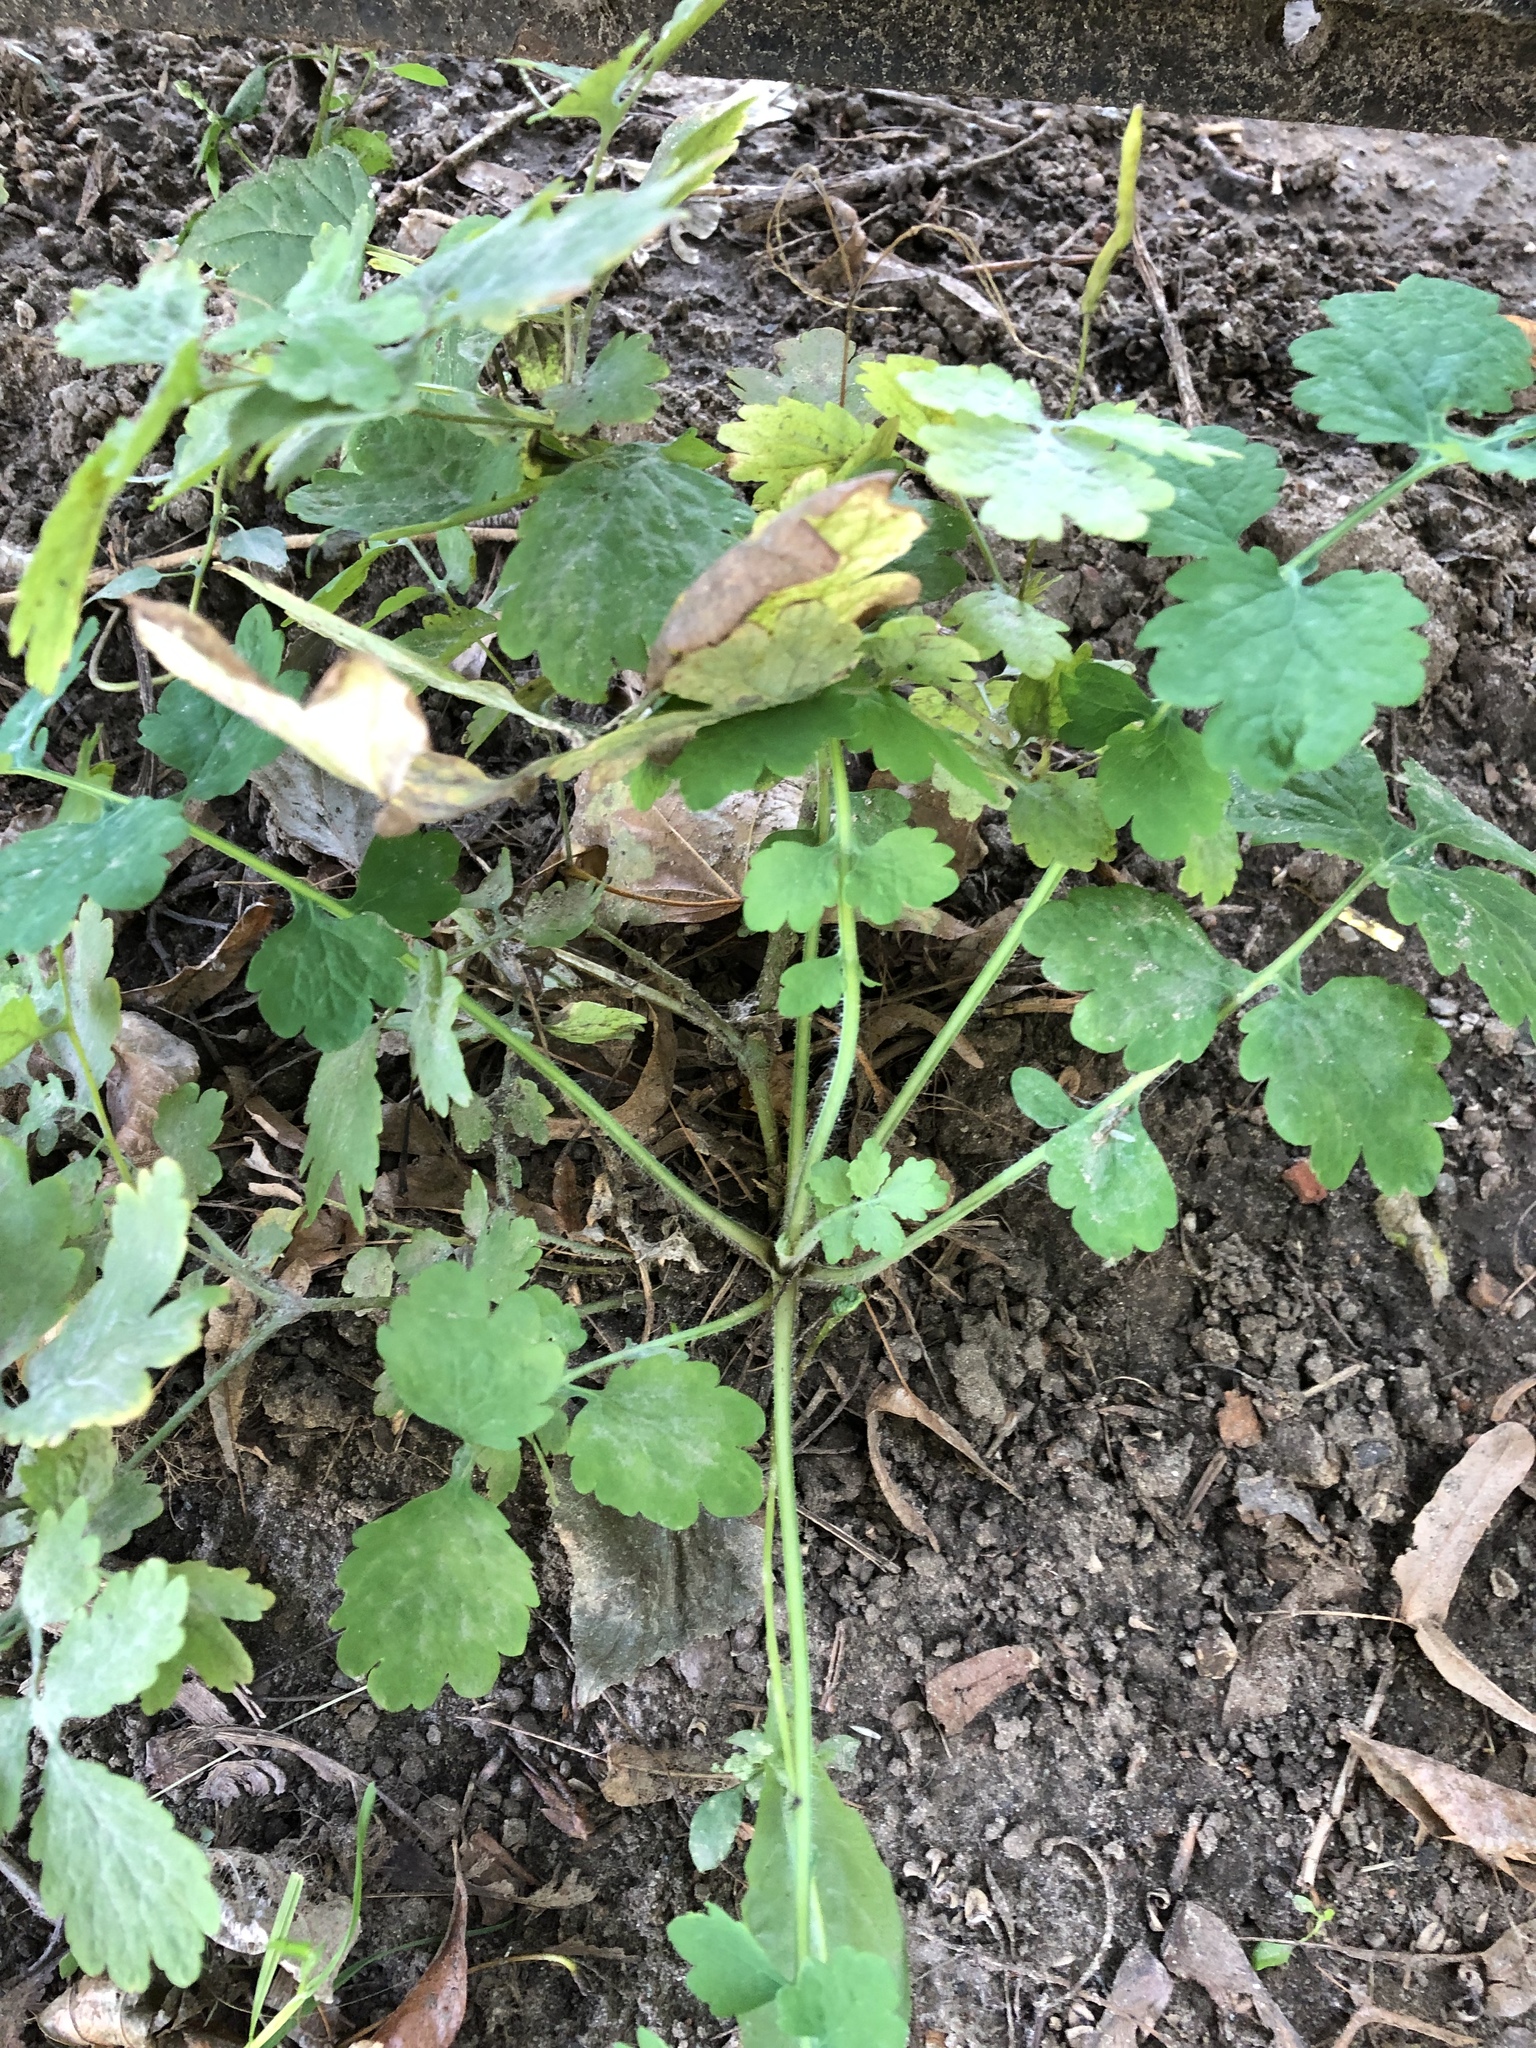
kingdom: Plantae
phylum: Tracheophyta
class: Magnoliopsida
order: Ranunculales
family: Papaveraceae
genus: Chelidonium
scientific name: Chelidonium majus
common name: Greater celandine
